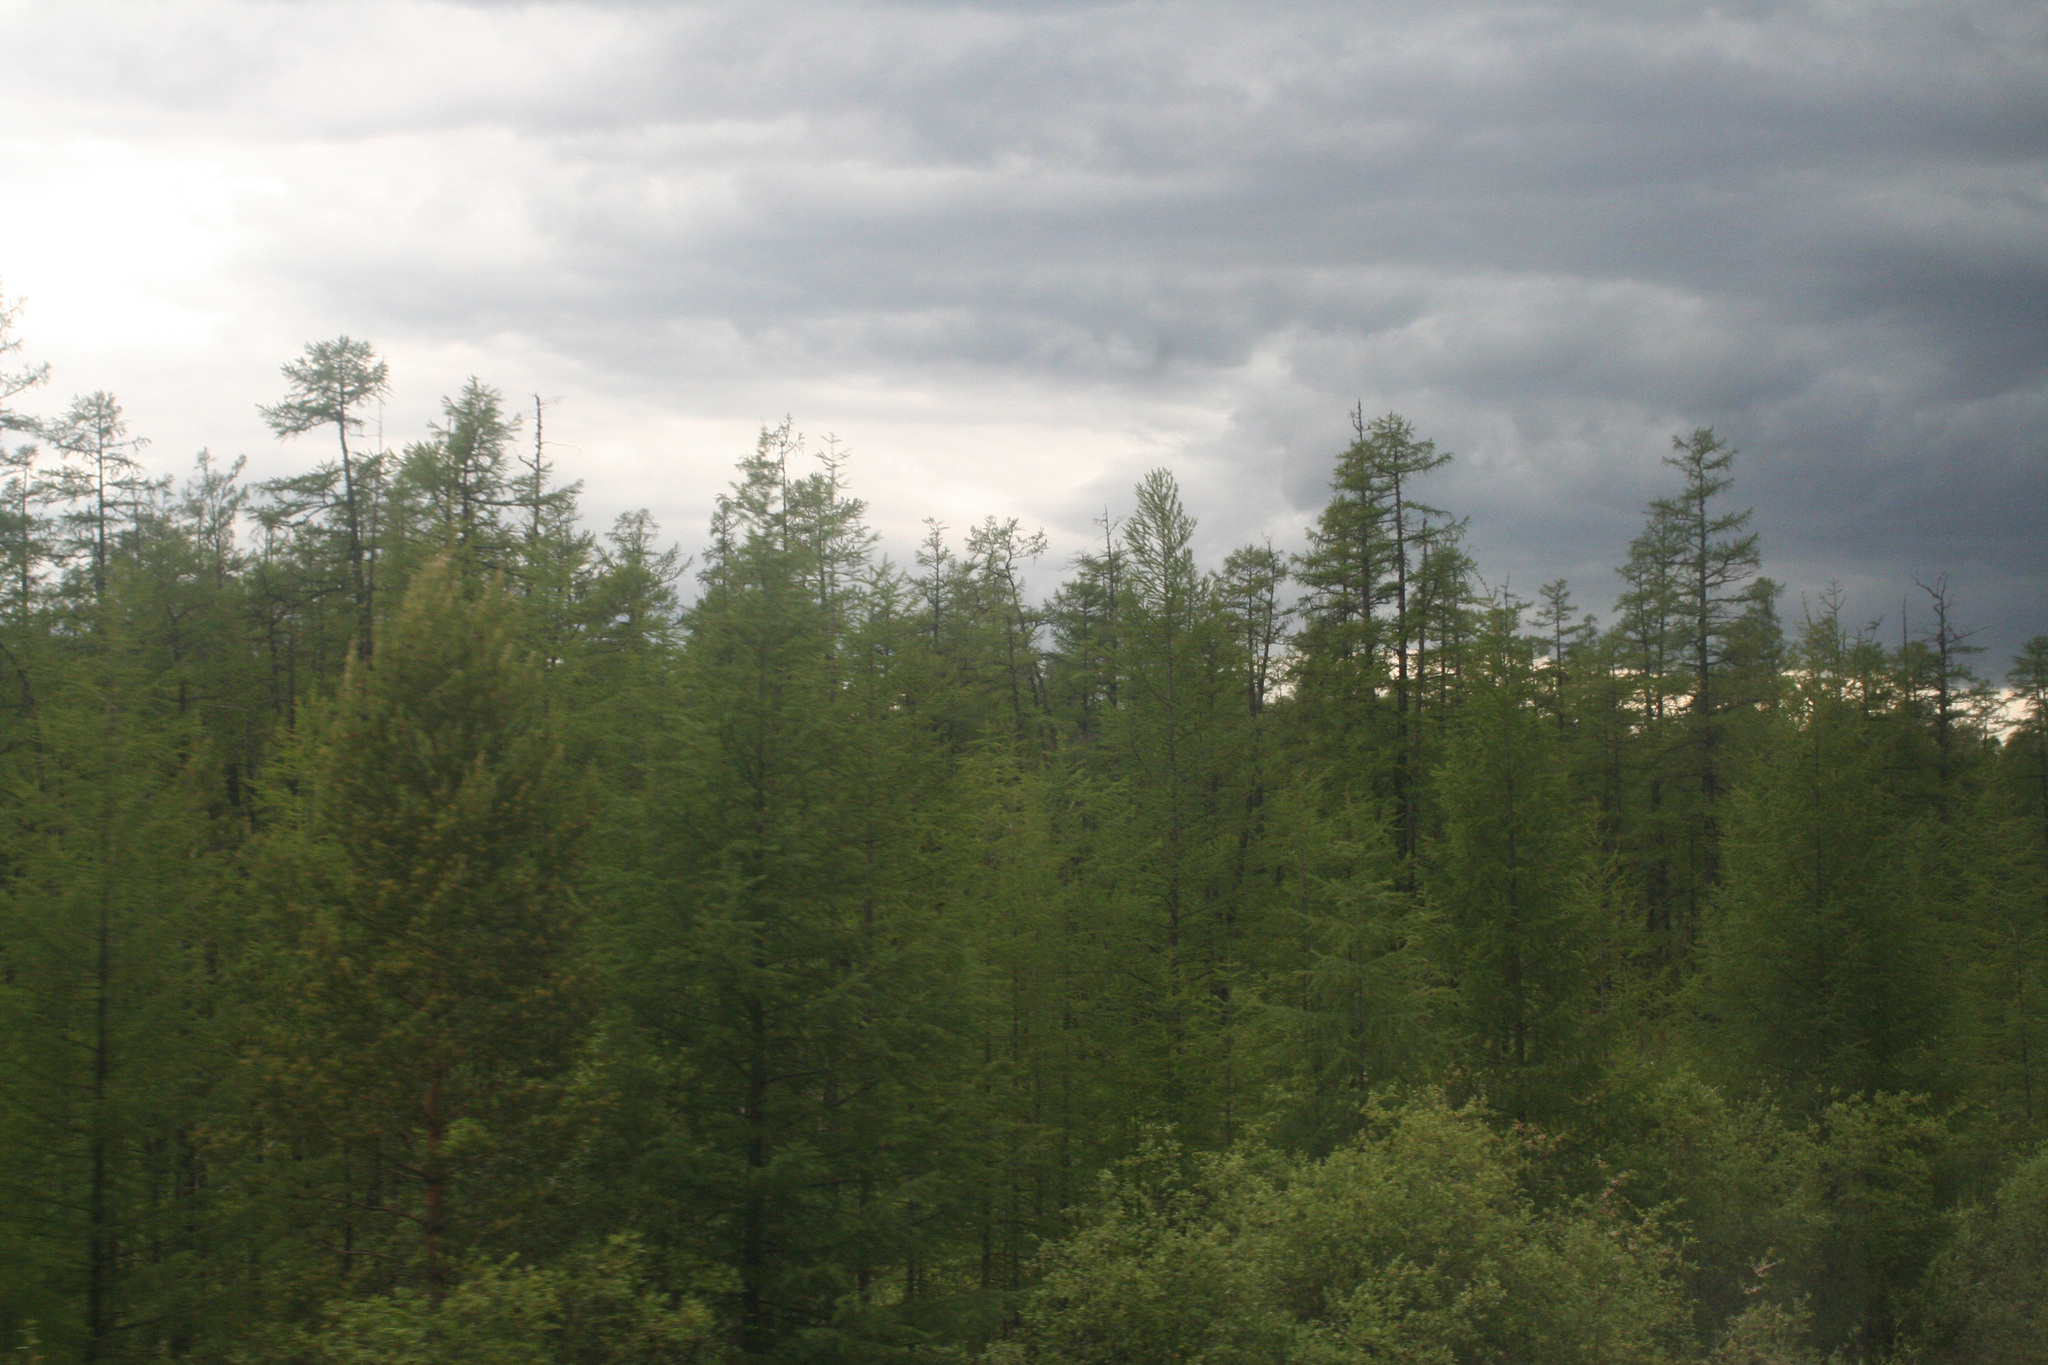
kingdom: Plantae
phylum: Tracheophyta
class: Pinopsida
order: Pinales
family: Pinaceae
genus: Larix
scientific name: Larix gmelinii
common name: Dahurian larch
